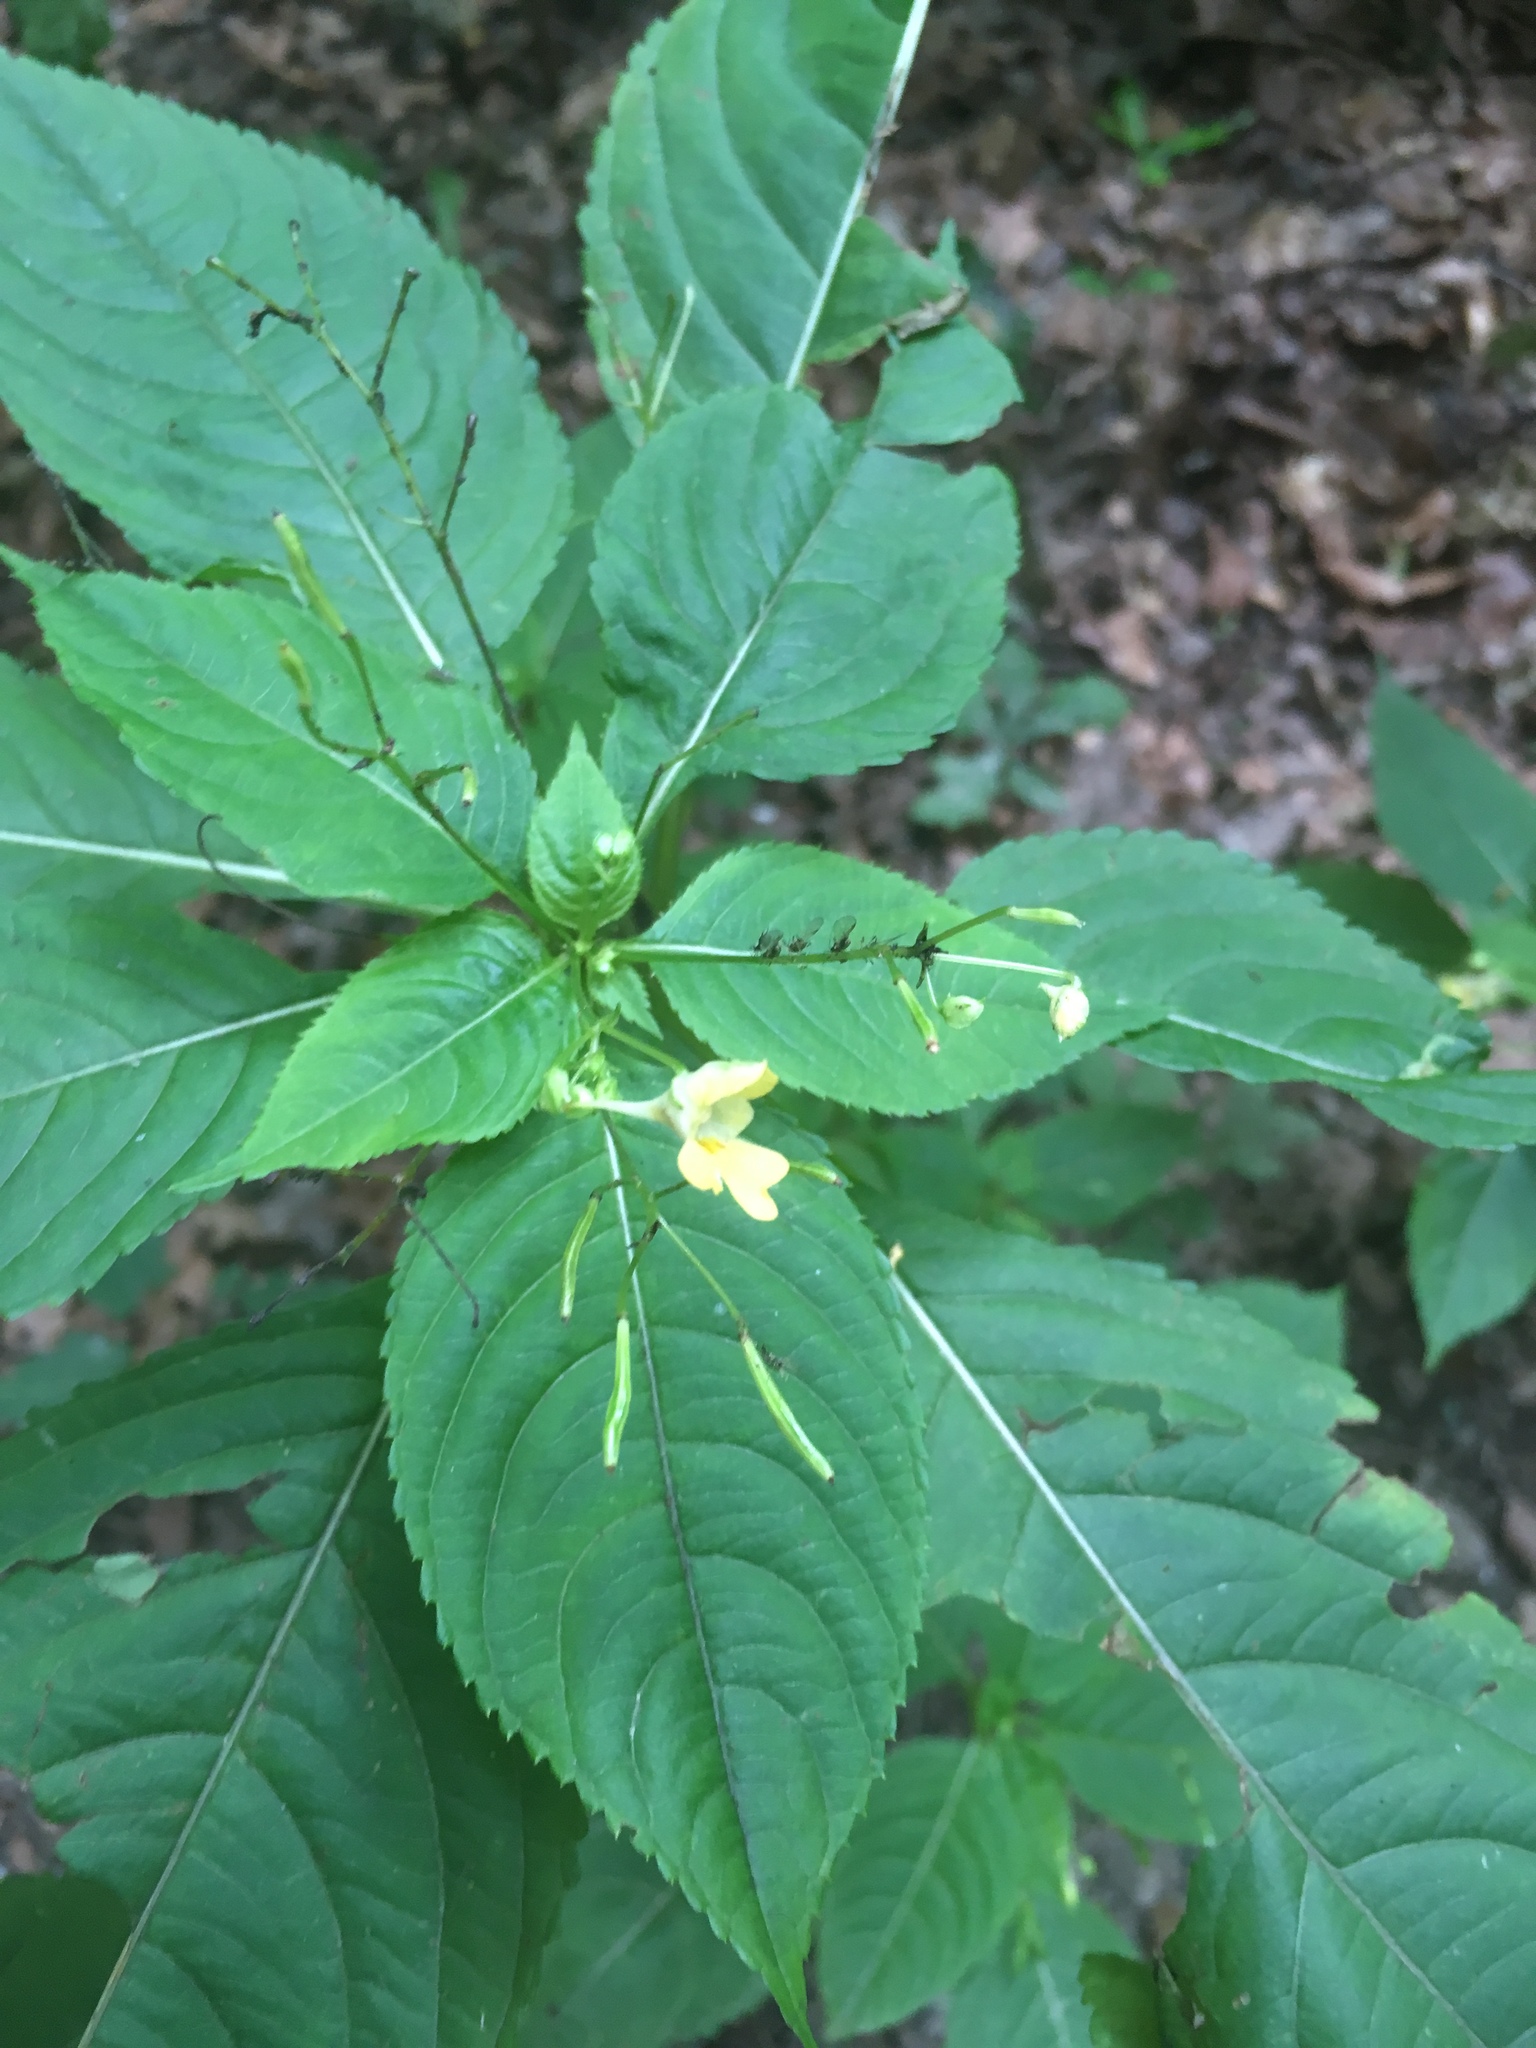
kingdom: Plantae
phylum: Tracheophyta
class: Magnoliopsida
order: Ericales
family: Balsaminaceae
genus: Impatiens
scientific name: Impatiens parviflora
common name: Small balsam
